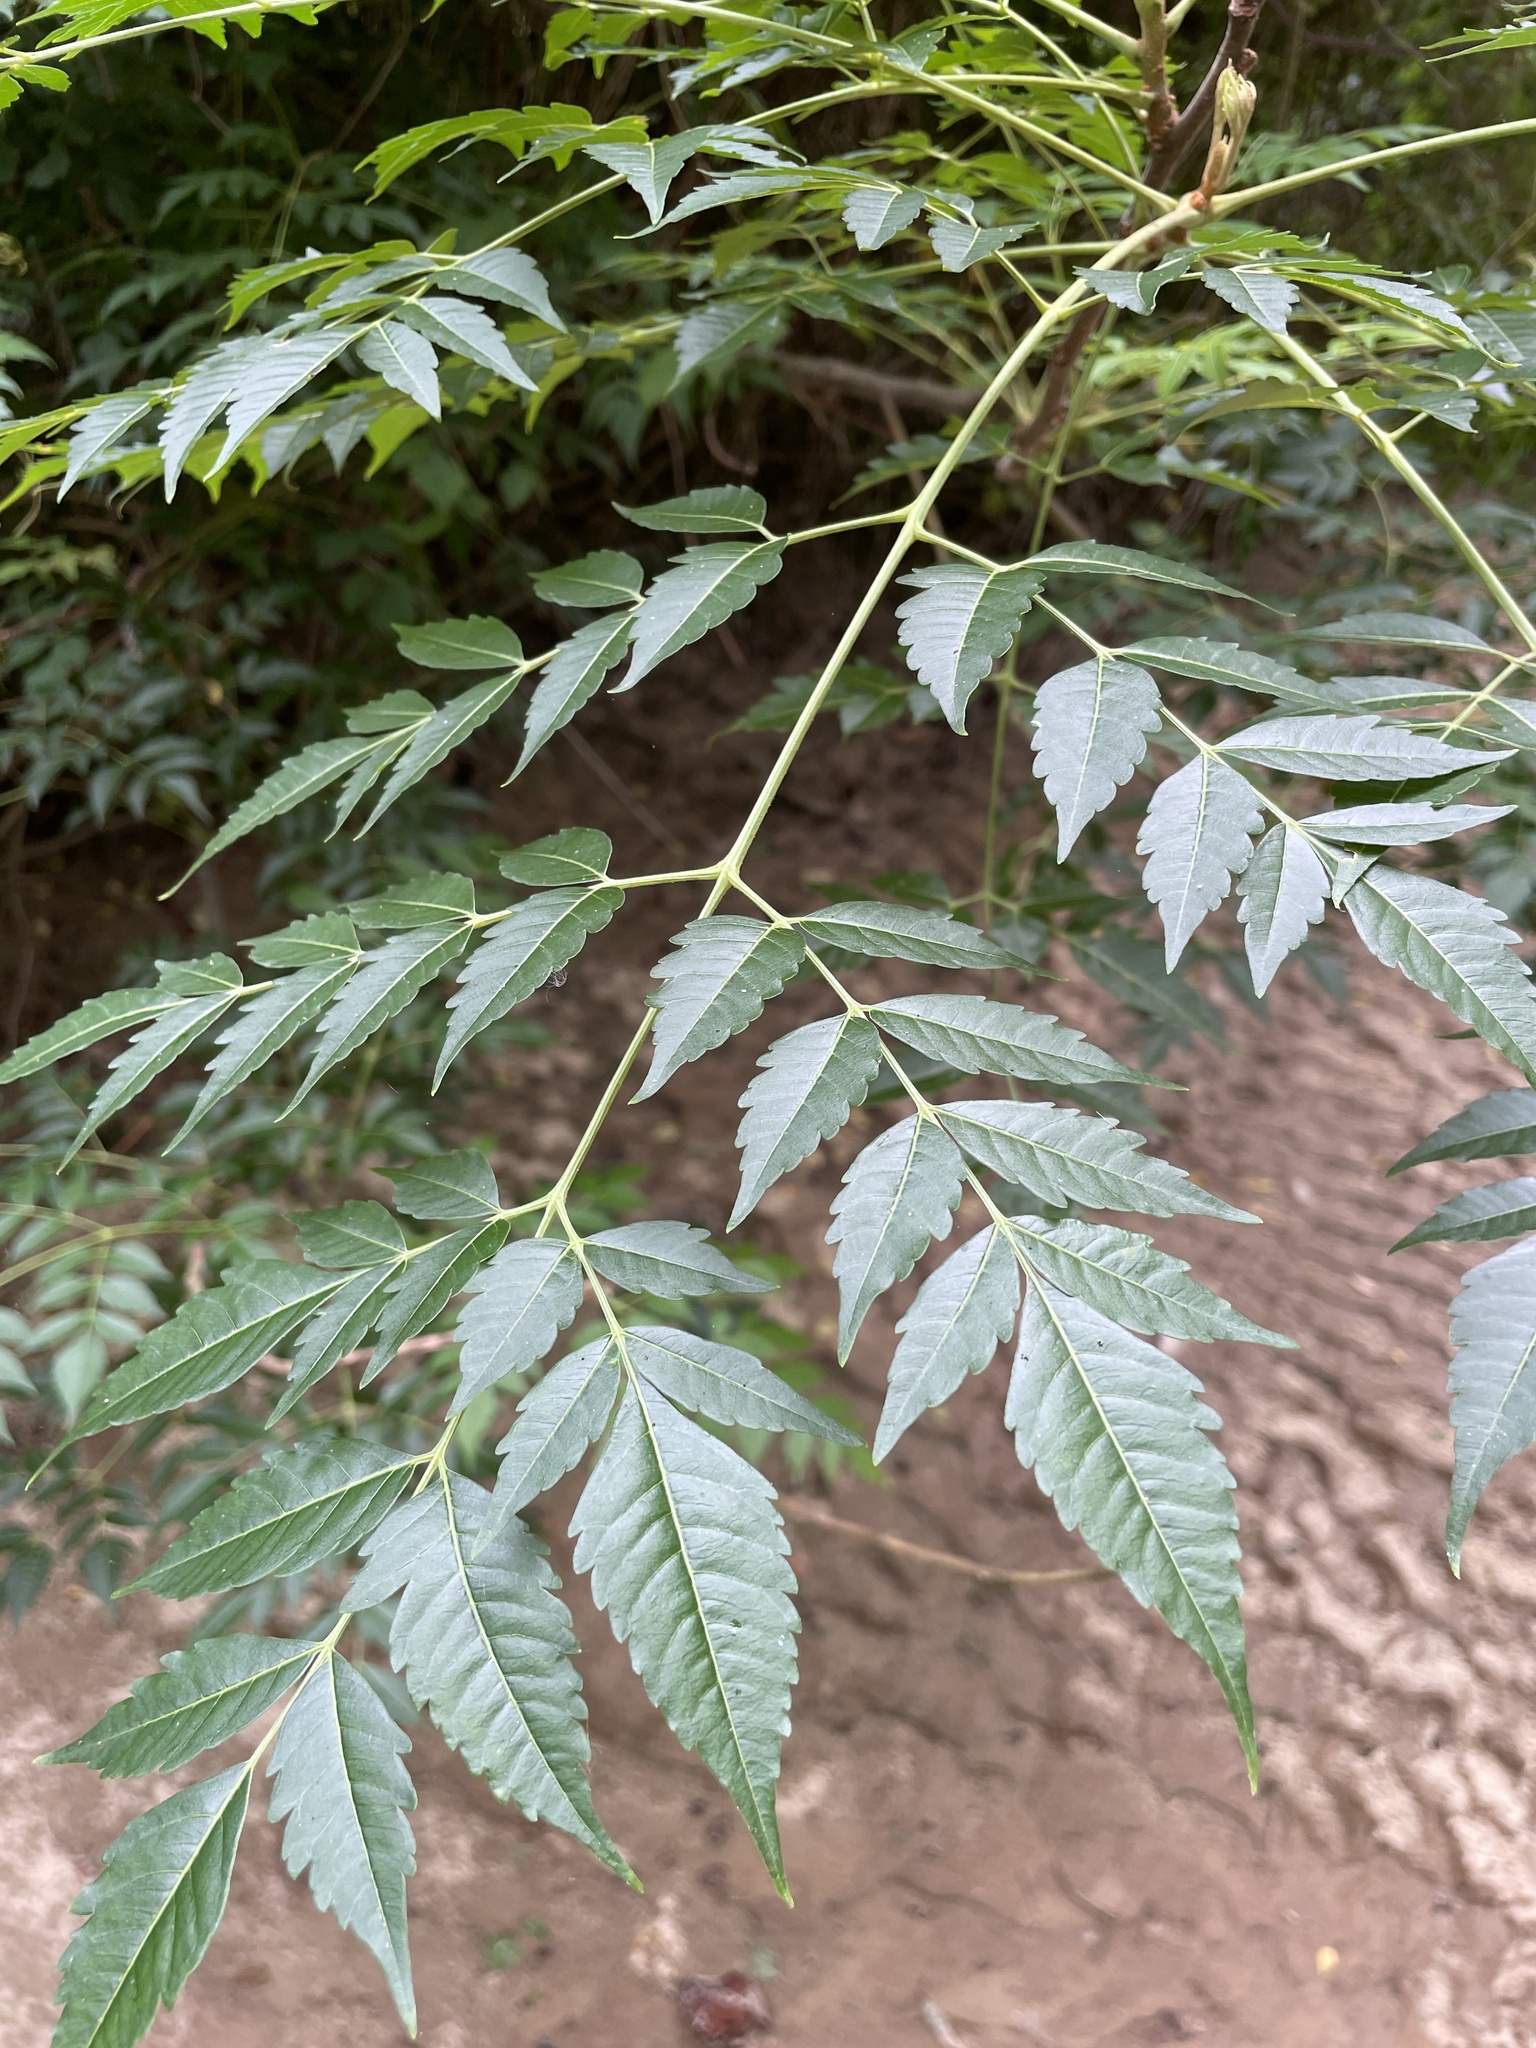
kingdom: Plantae
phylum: Tracheophyta
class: Magnoliopsida
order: Sapindales
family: Meliaceae
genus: Melia
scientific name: Melia azedarach
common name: Chinaberrytree
